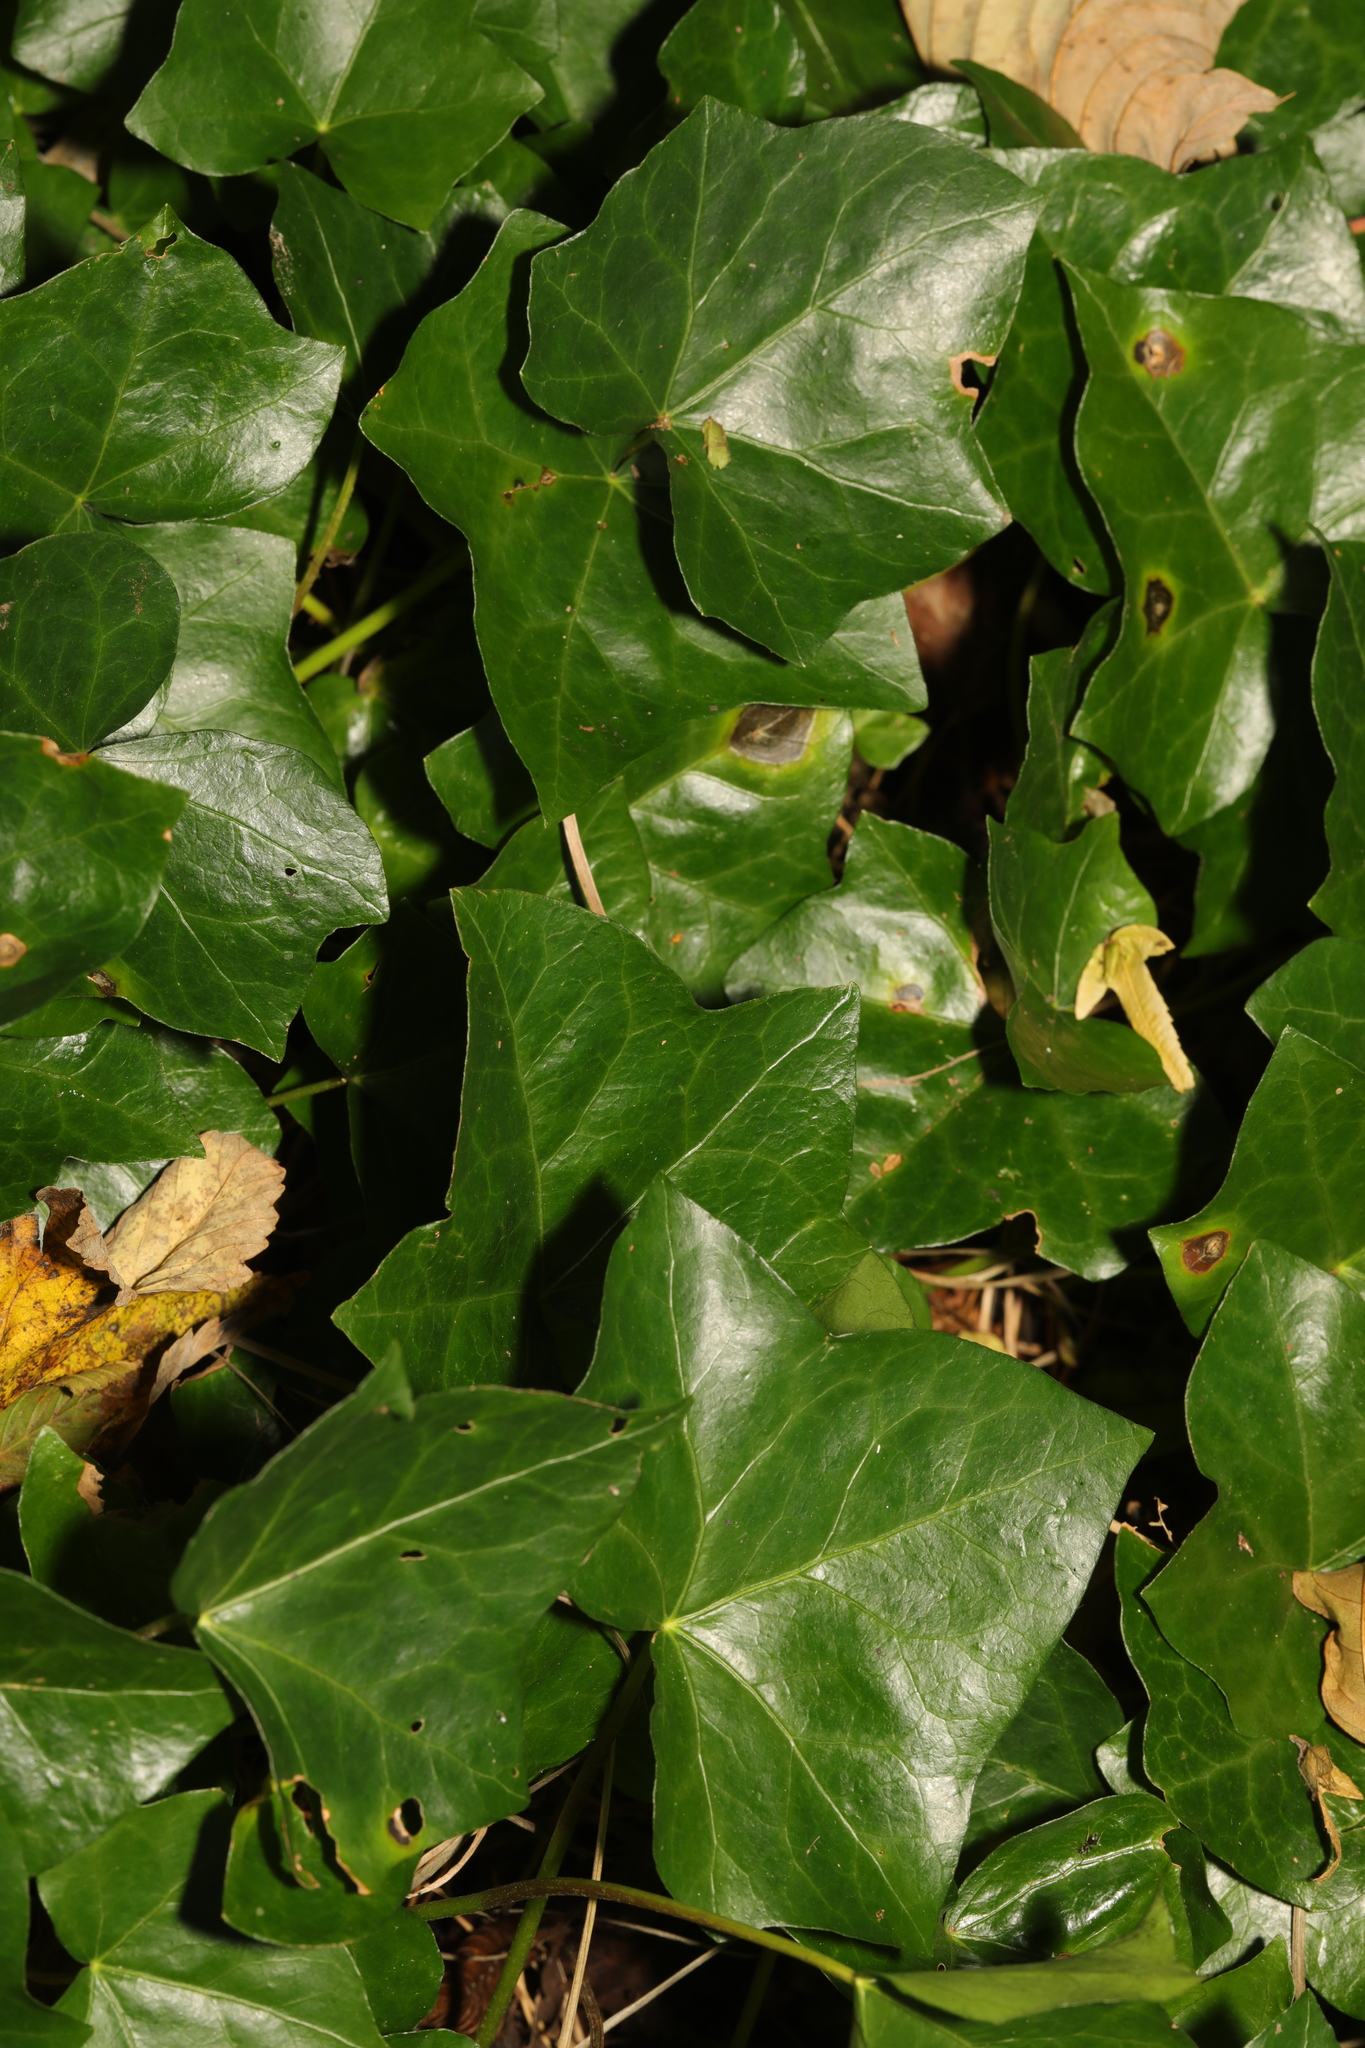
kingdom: Plantae
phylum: Tracheophyta
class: Magnoliopsida
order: Apiales
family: Araliaceae
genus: Hedera
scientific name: Hedera helix
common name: Ivy
